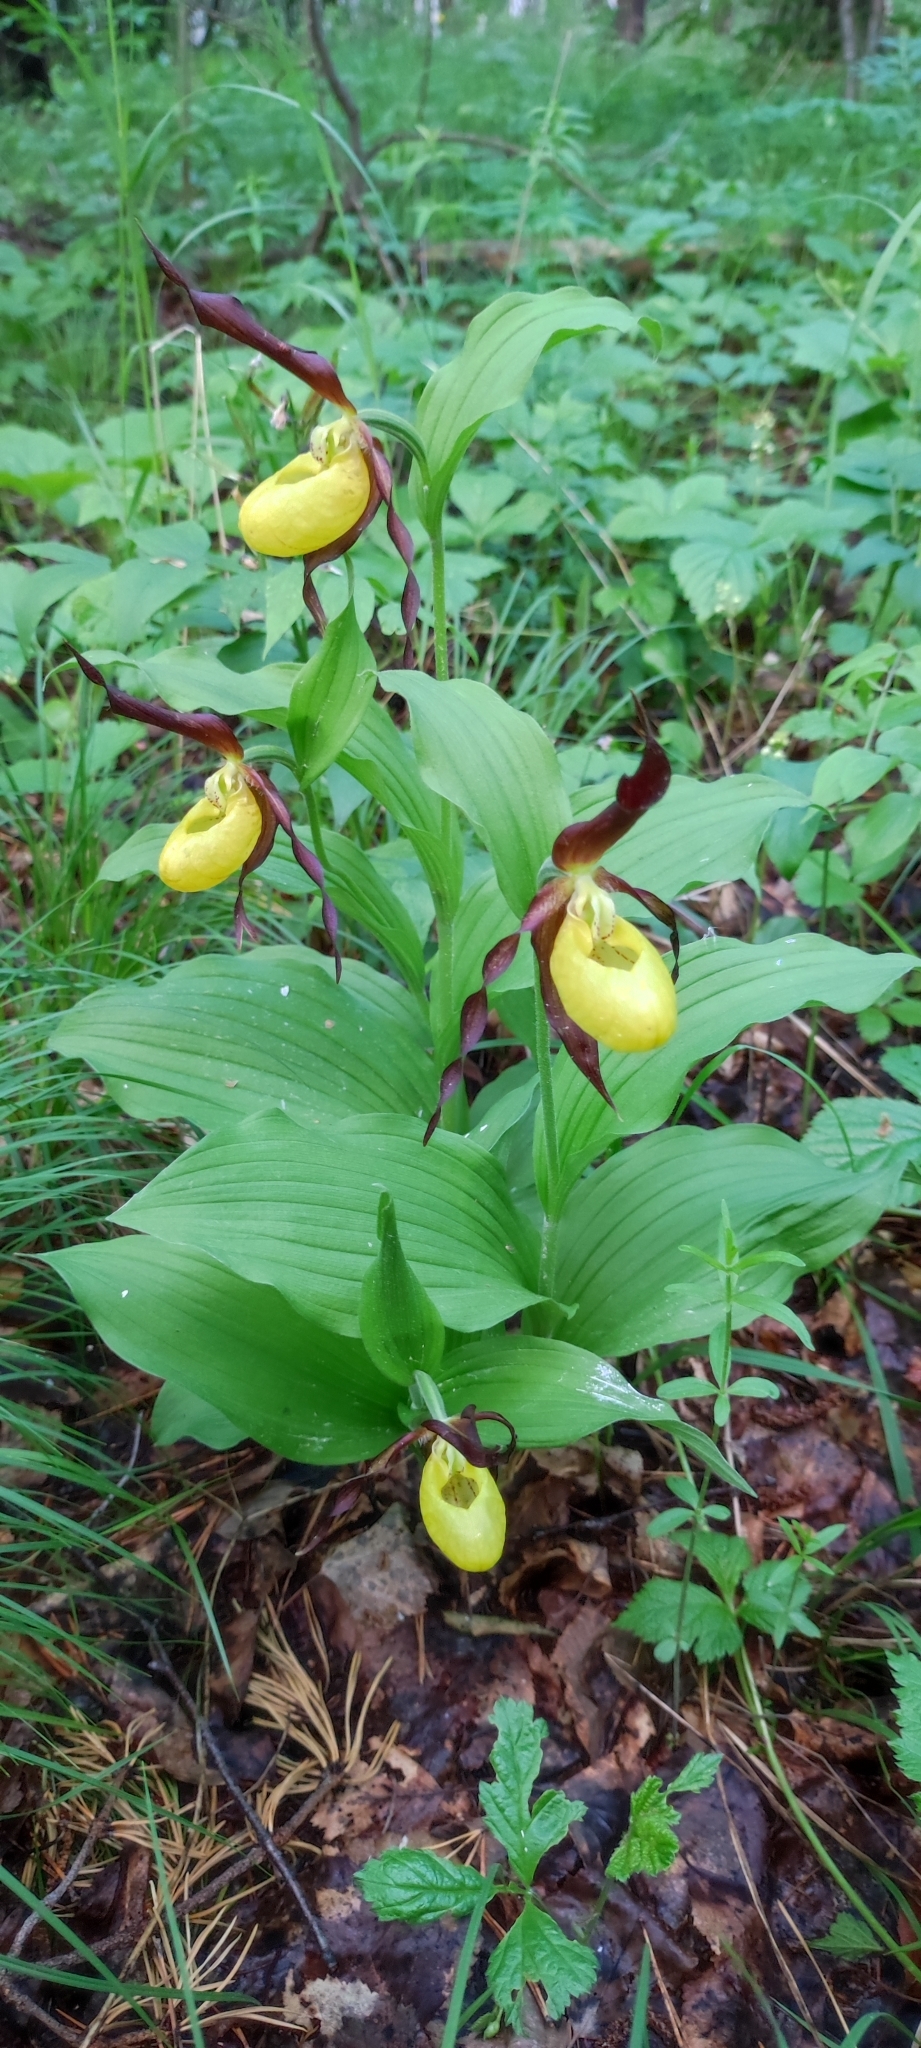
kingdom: Plantae
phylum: Tracheophyta
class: Liliopsida
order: Asparagales
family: Orchidaceae
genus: Cypripedium
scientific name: Cypripedium calceolus
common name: Lady's-slipper
